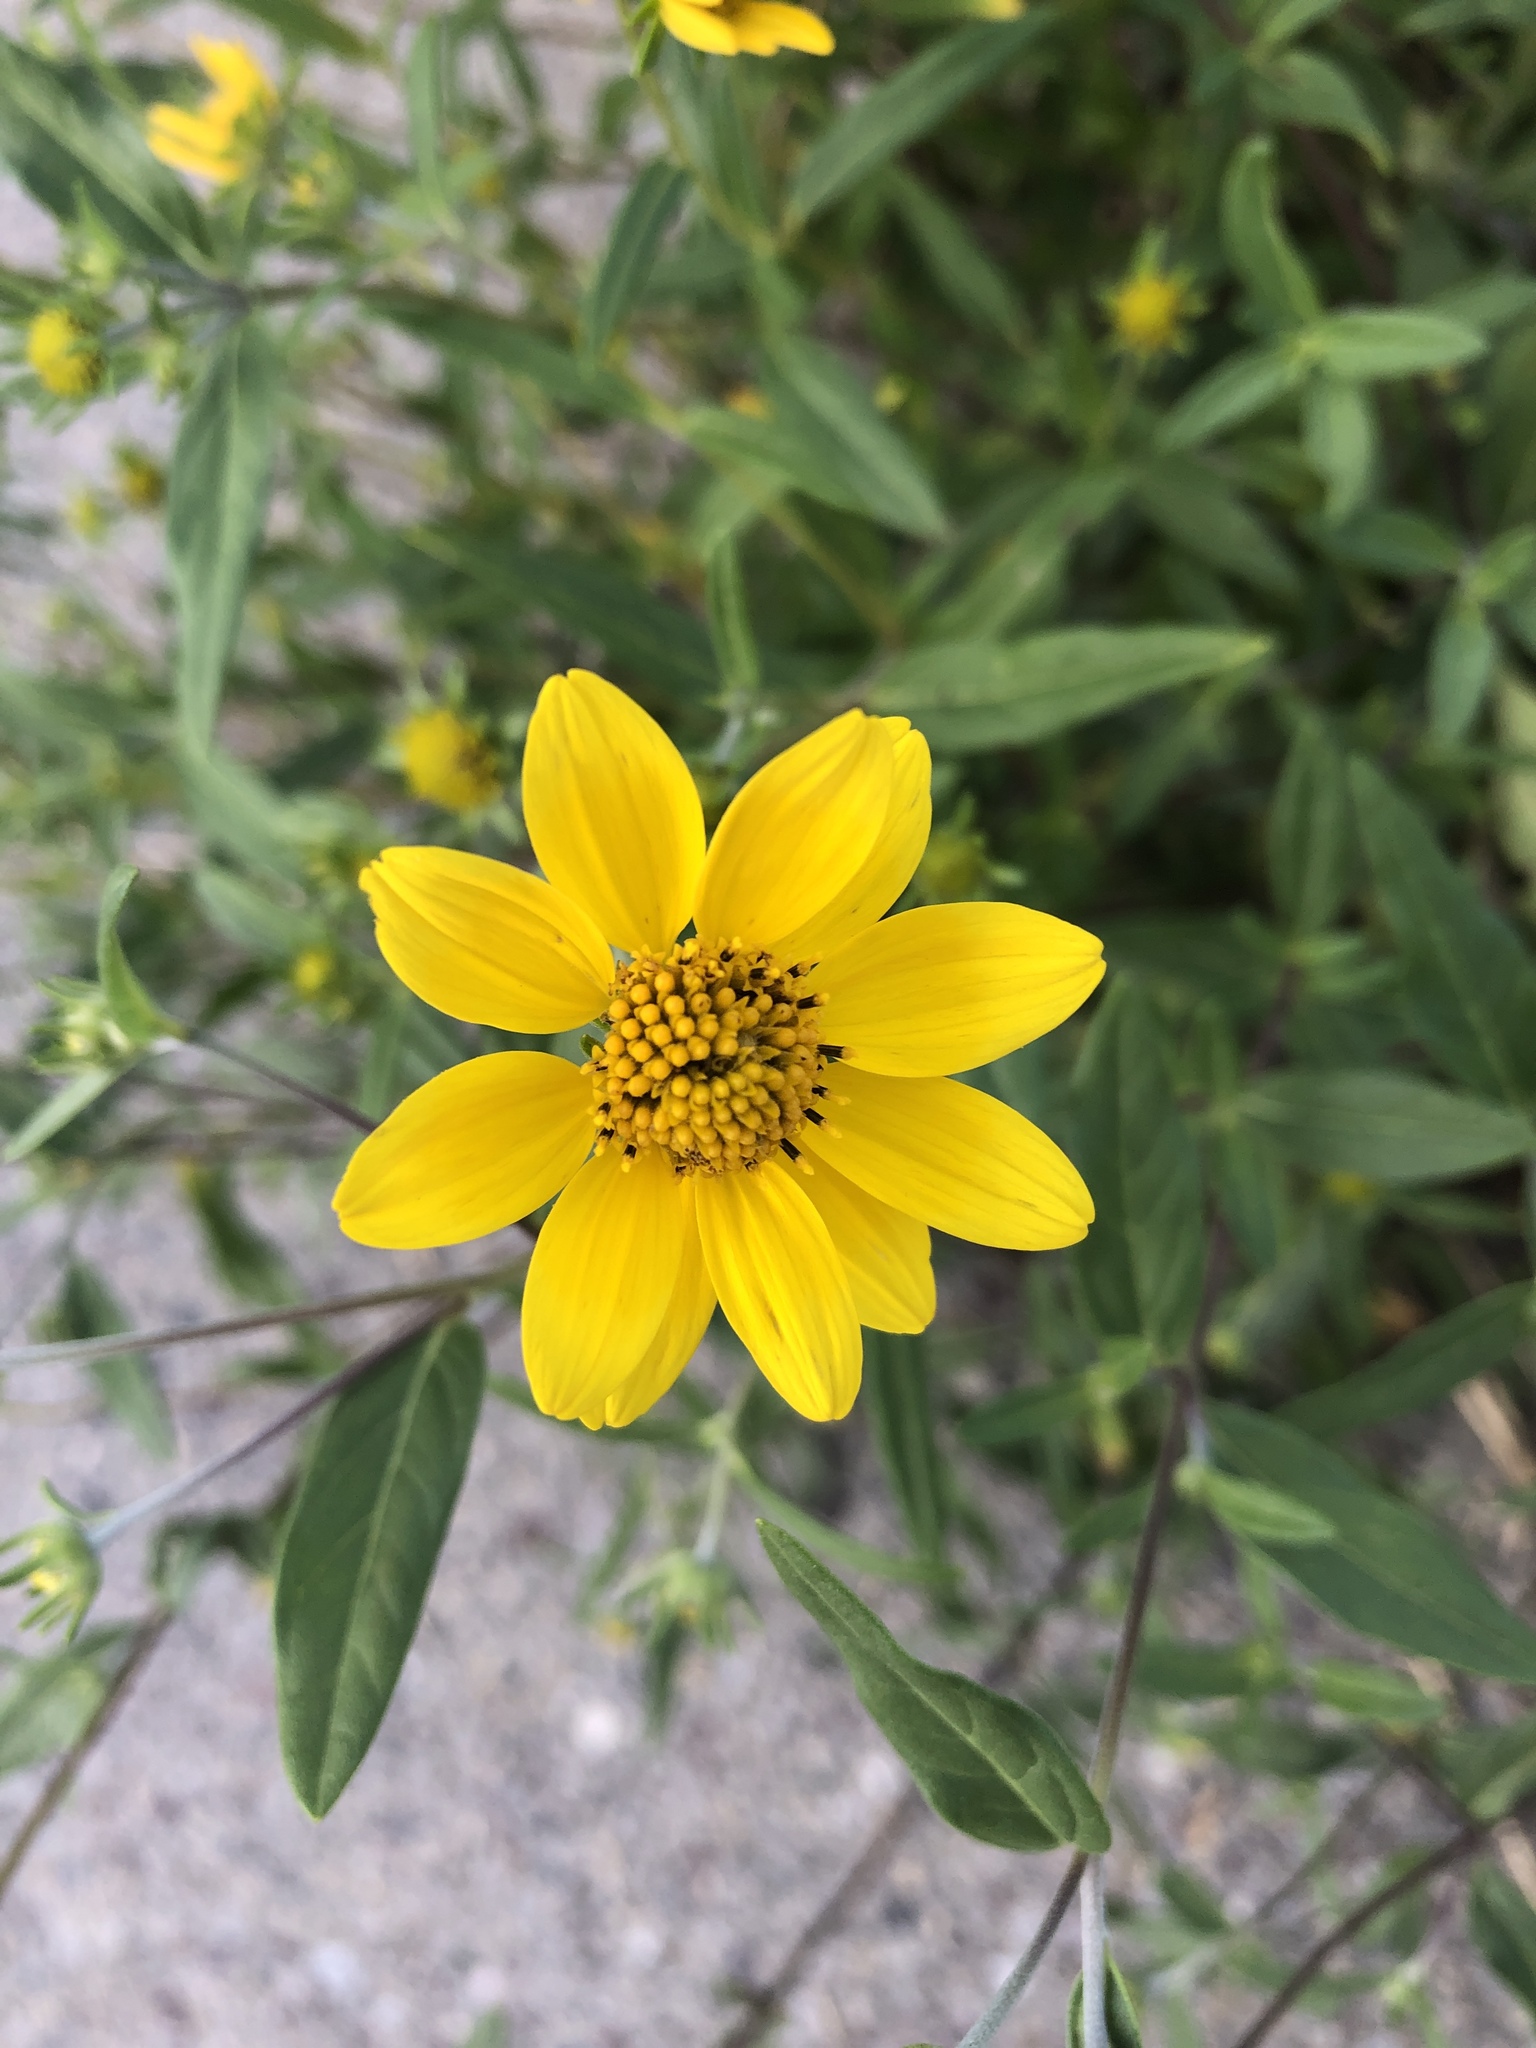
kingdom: Plantae
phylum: Tracheophyta
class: Magnoliopsida
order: Asterales
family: Asteraceae
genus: Heliomeris
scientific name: Heliomeris multiflora
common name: Showy goldeneye
